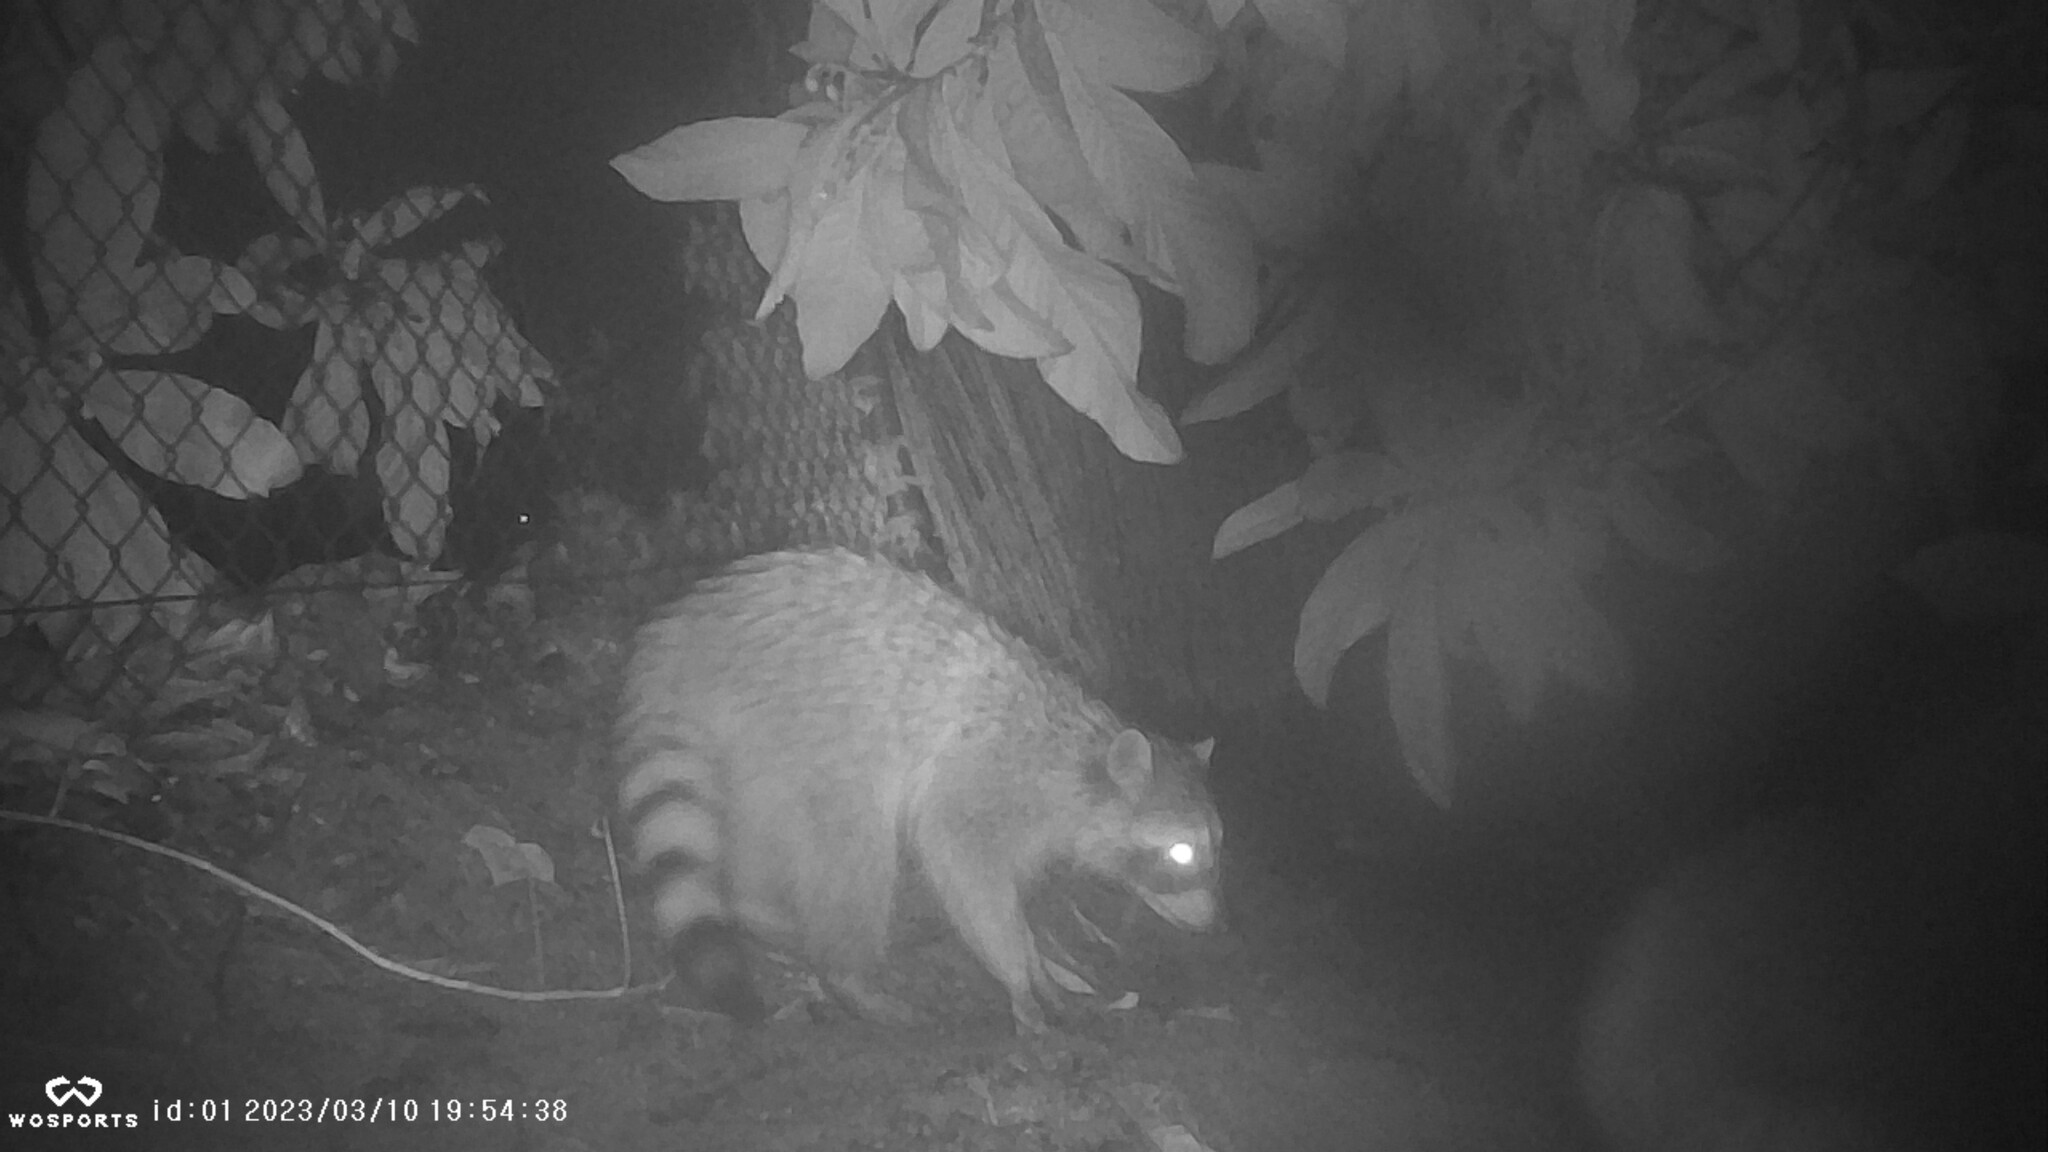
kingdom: Animalia
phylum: Chordata
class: Mammalia
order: Carnivora
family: Procyonidae
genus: Procyon
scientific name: Procyon lotor
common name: Raccoon
